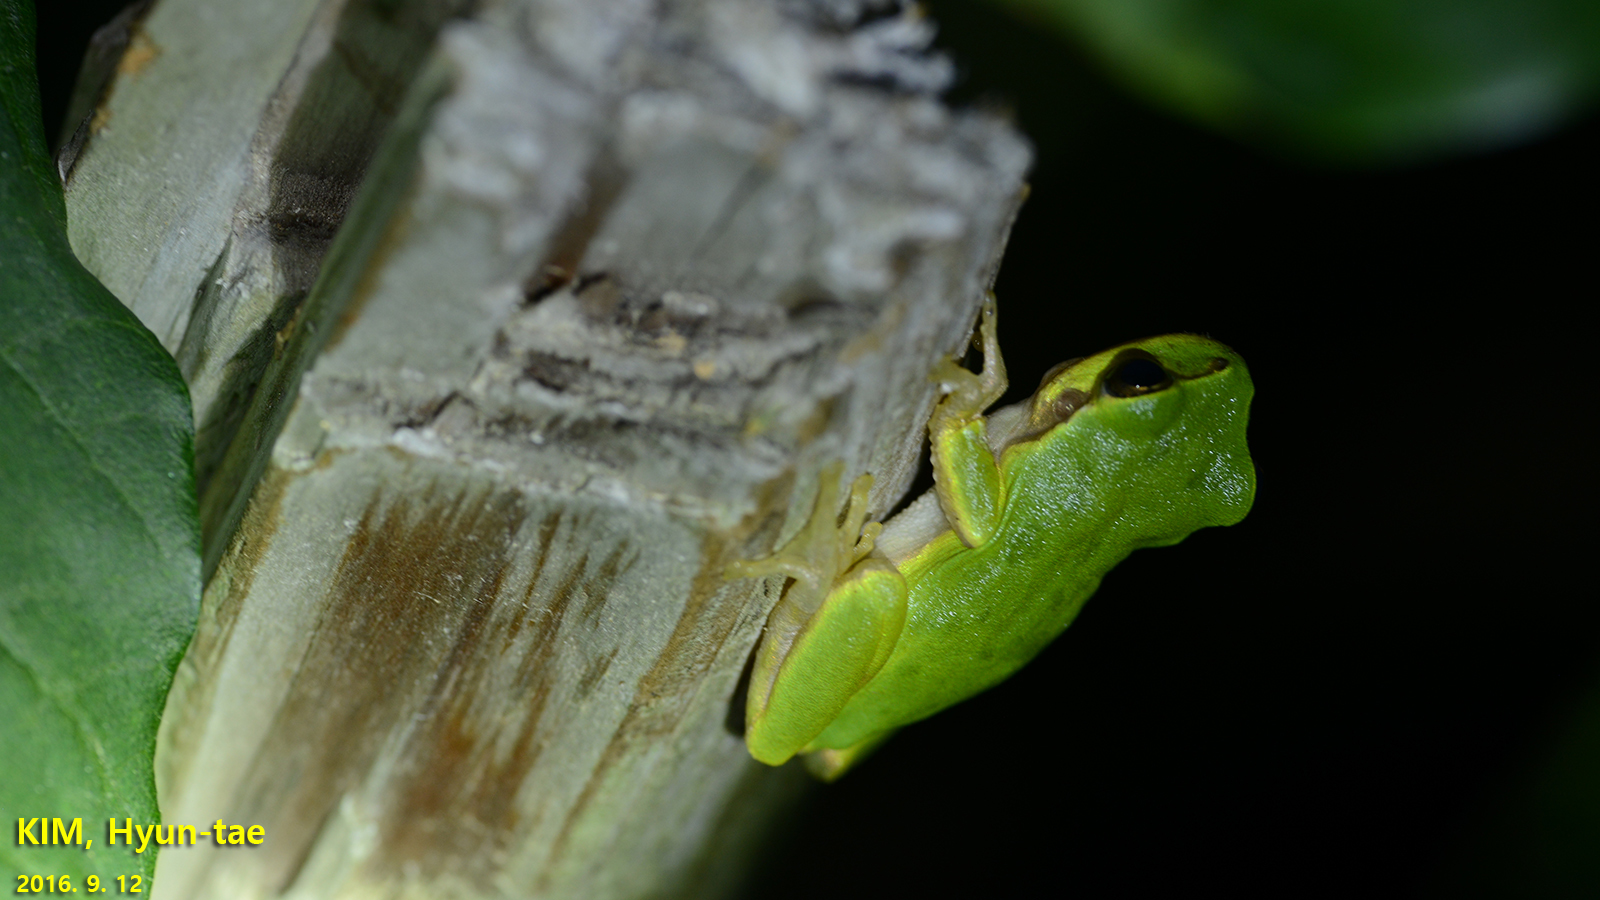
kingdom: Animalia
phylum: Chordata
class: Amphibia
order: Anura
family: Hylidae
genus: Dryophytes
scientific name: Dryophytes japonicus
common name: Japanese treefrog
